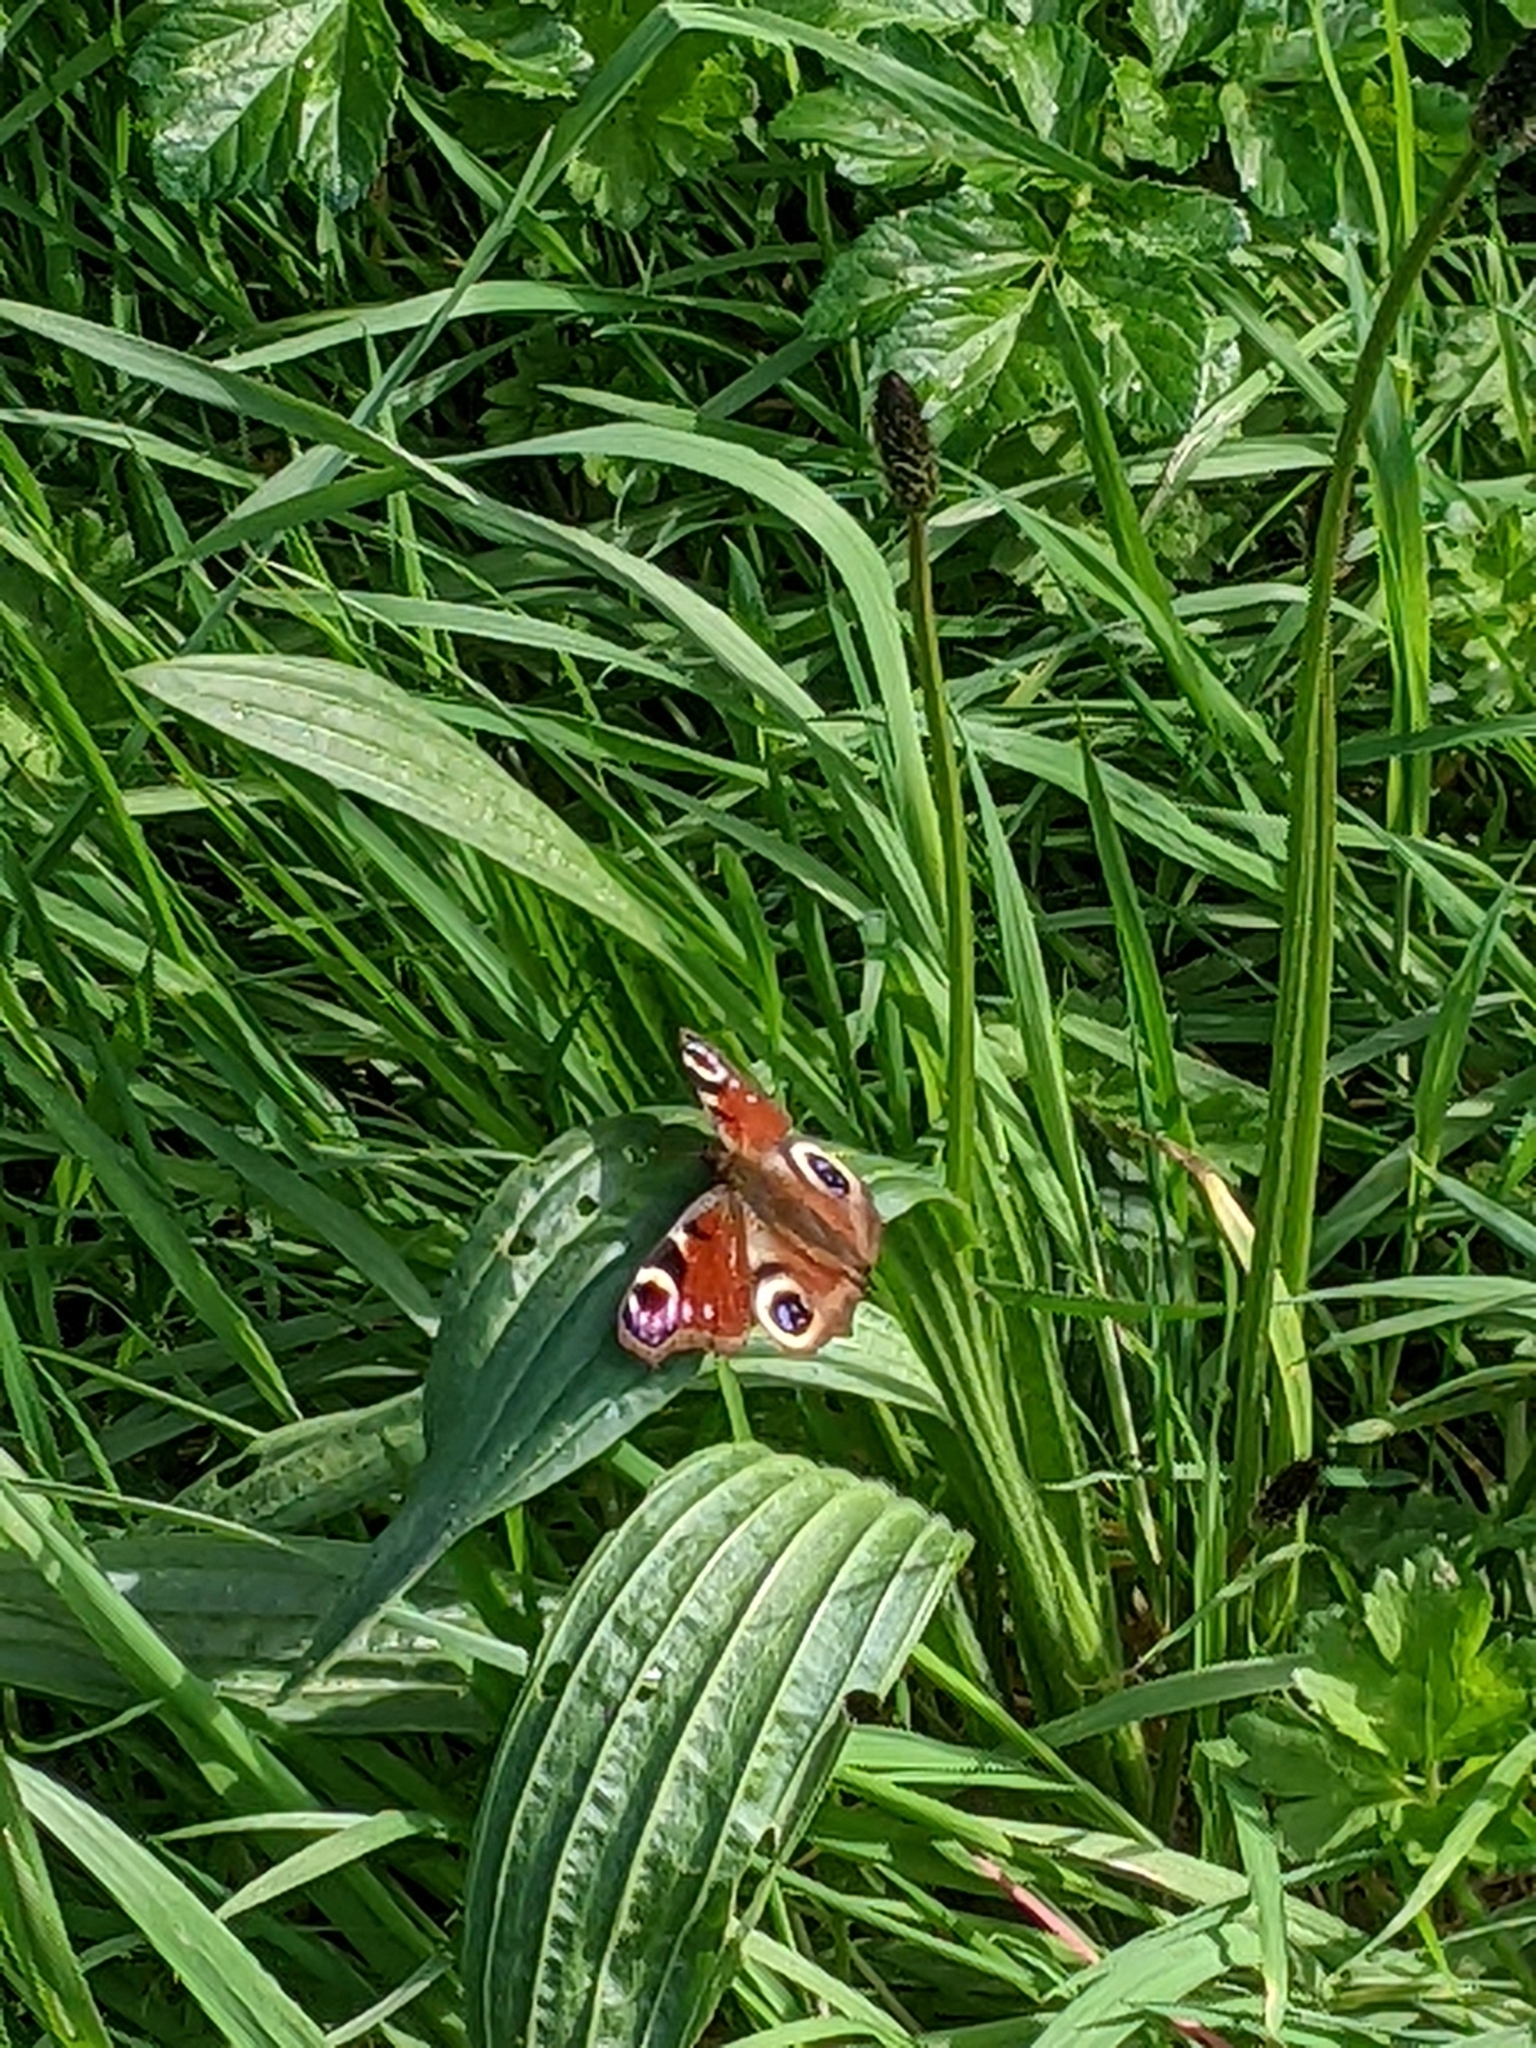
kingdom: Animalia
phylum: Arthropoda
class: Insecta
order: Lepidoptera
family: Nymphalidae
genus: Aglais
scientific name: Aglais io
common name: Peacock
